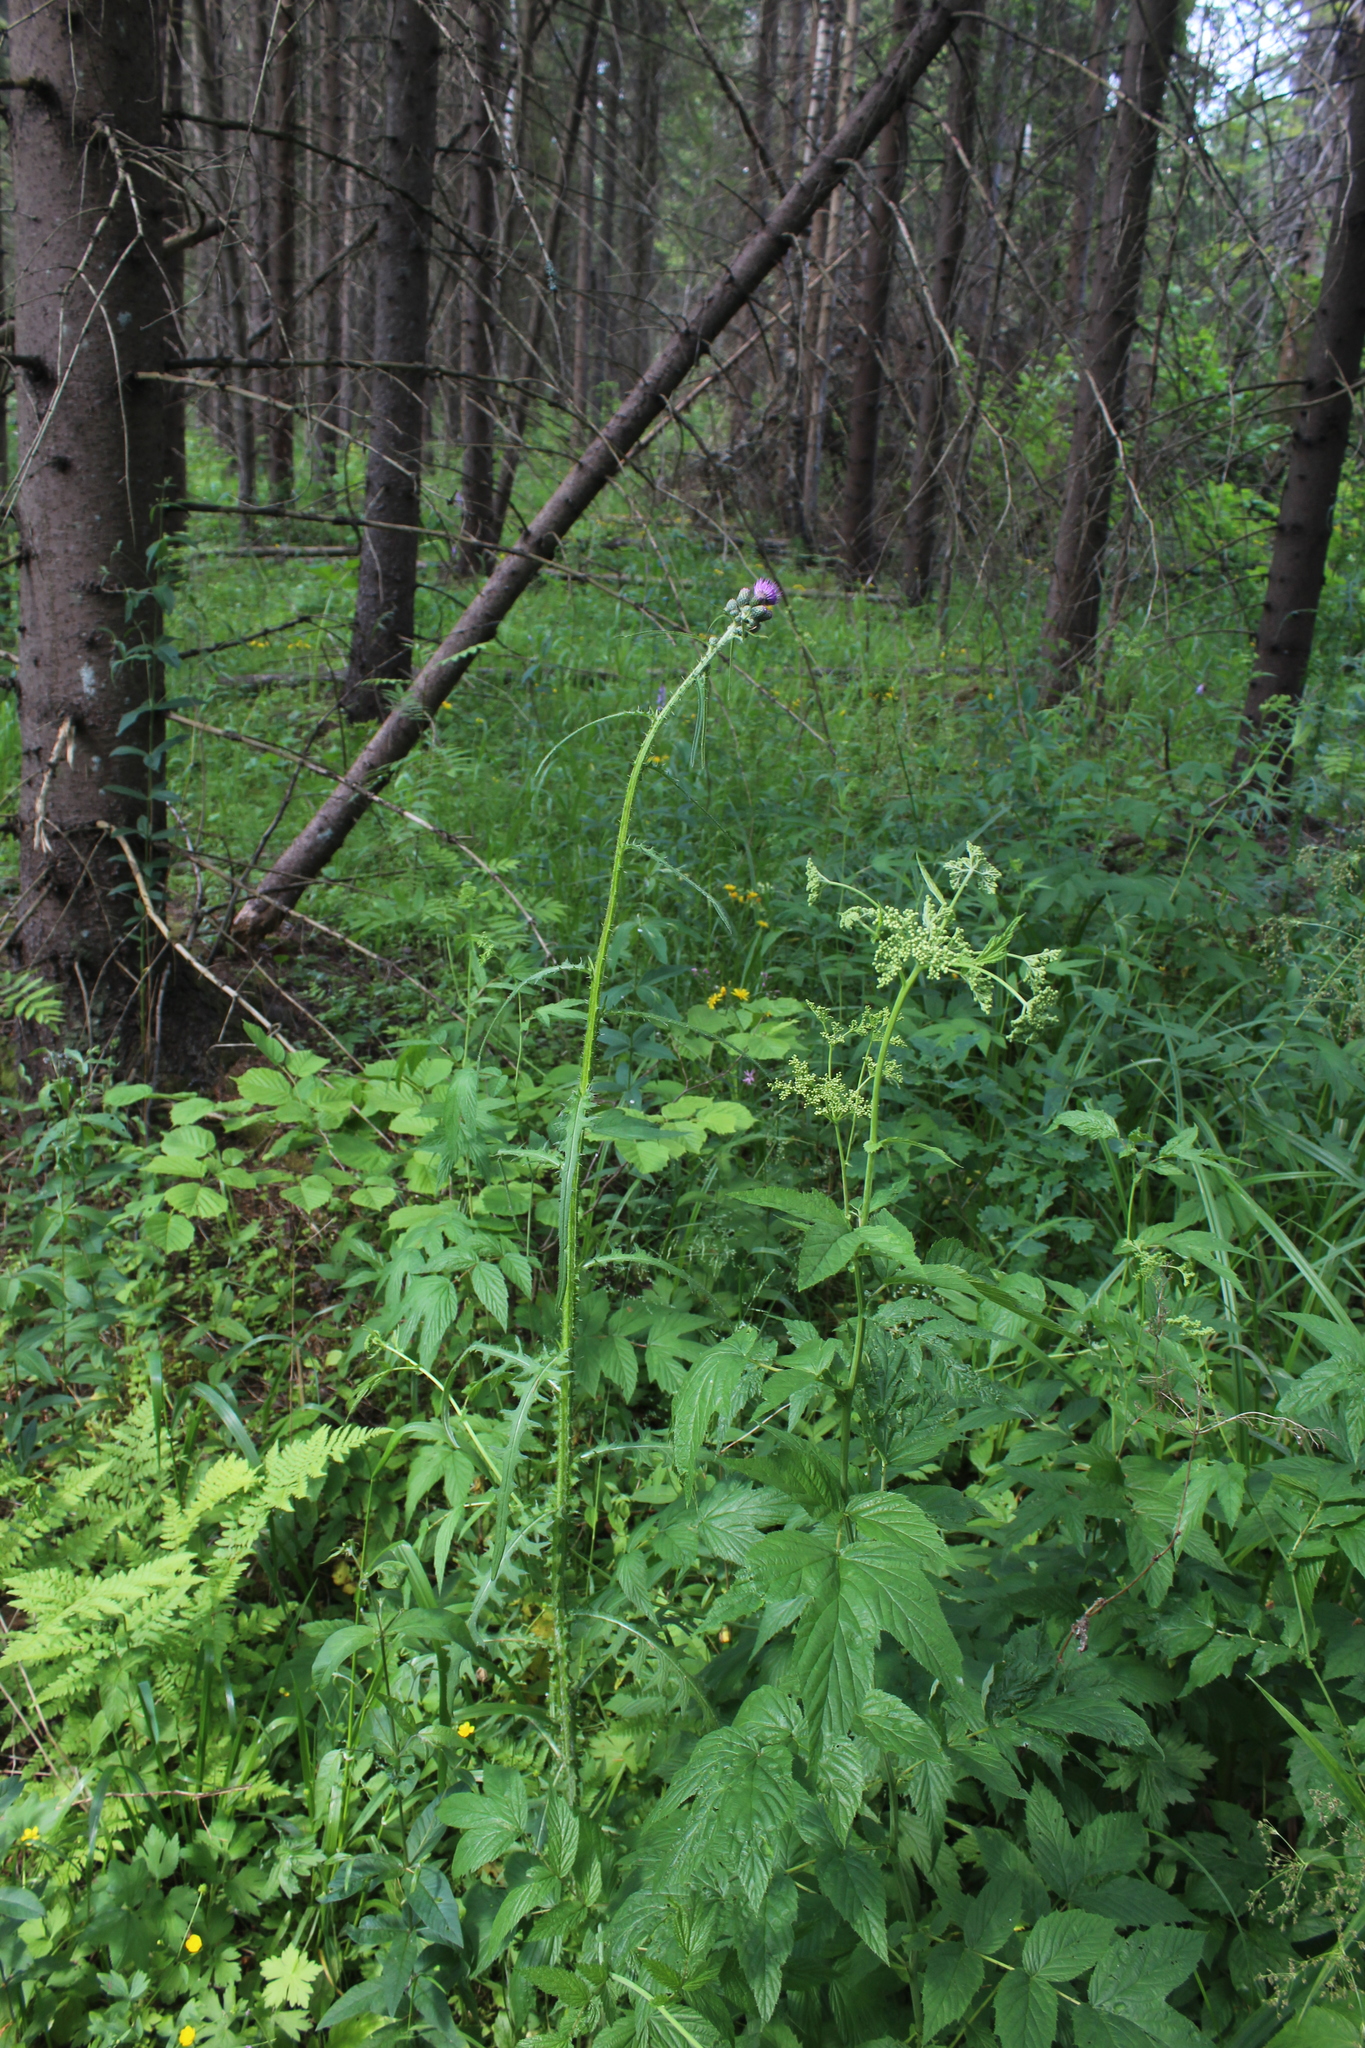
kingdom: Plantae
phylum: Tracheophyta
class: Magnoliopsida
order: Asterales
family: Asteraceae
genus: Cirsium
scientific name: Cirsium palustre
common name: Marsh thistle
